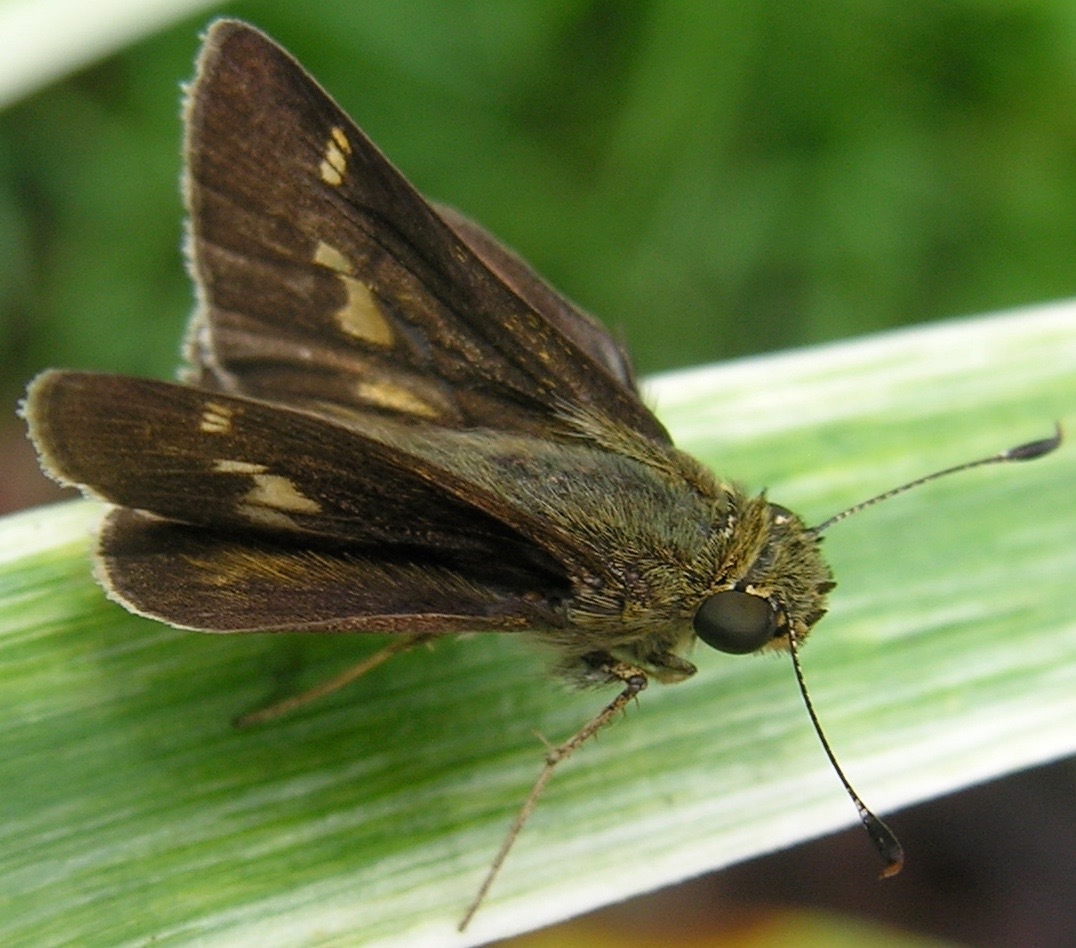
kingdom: Animalia
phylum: Arthropoda
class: Insecta
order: Lepidoptera
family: Hesperiidae
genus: Vernia
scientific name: Vernia verna
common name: Little glassywing
